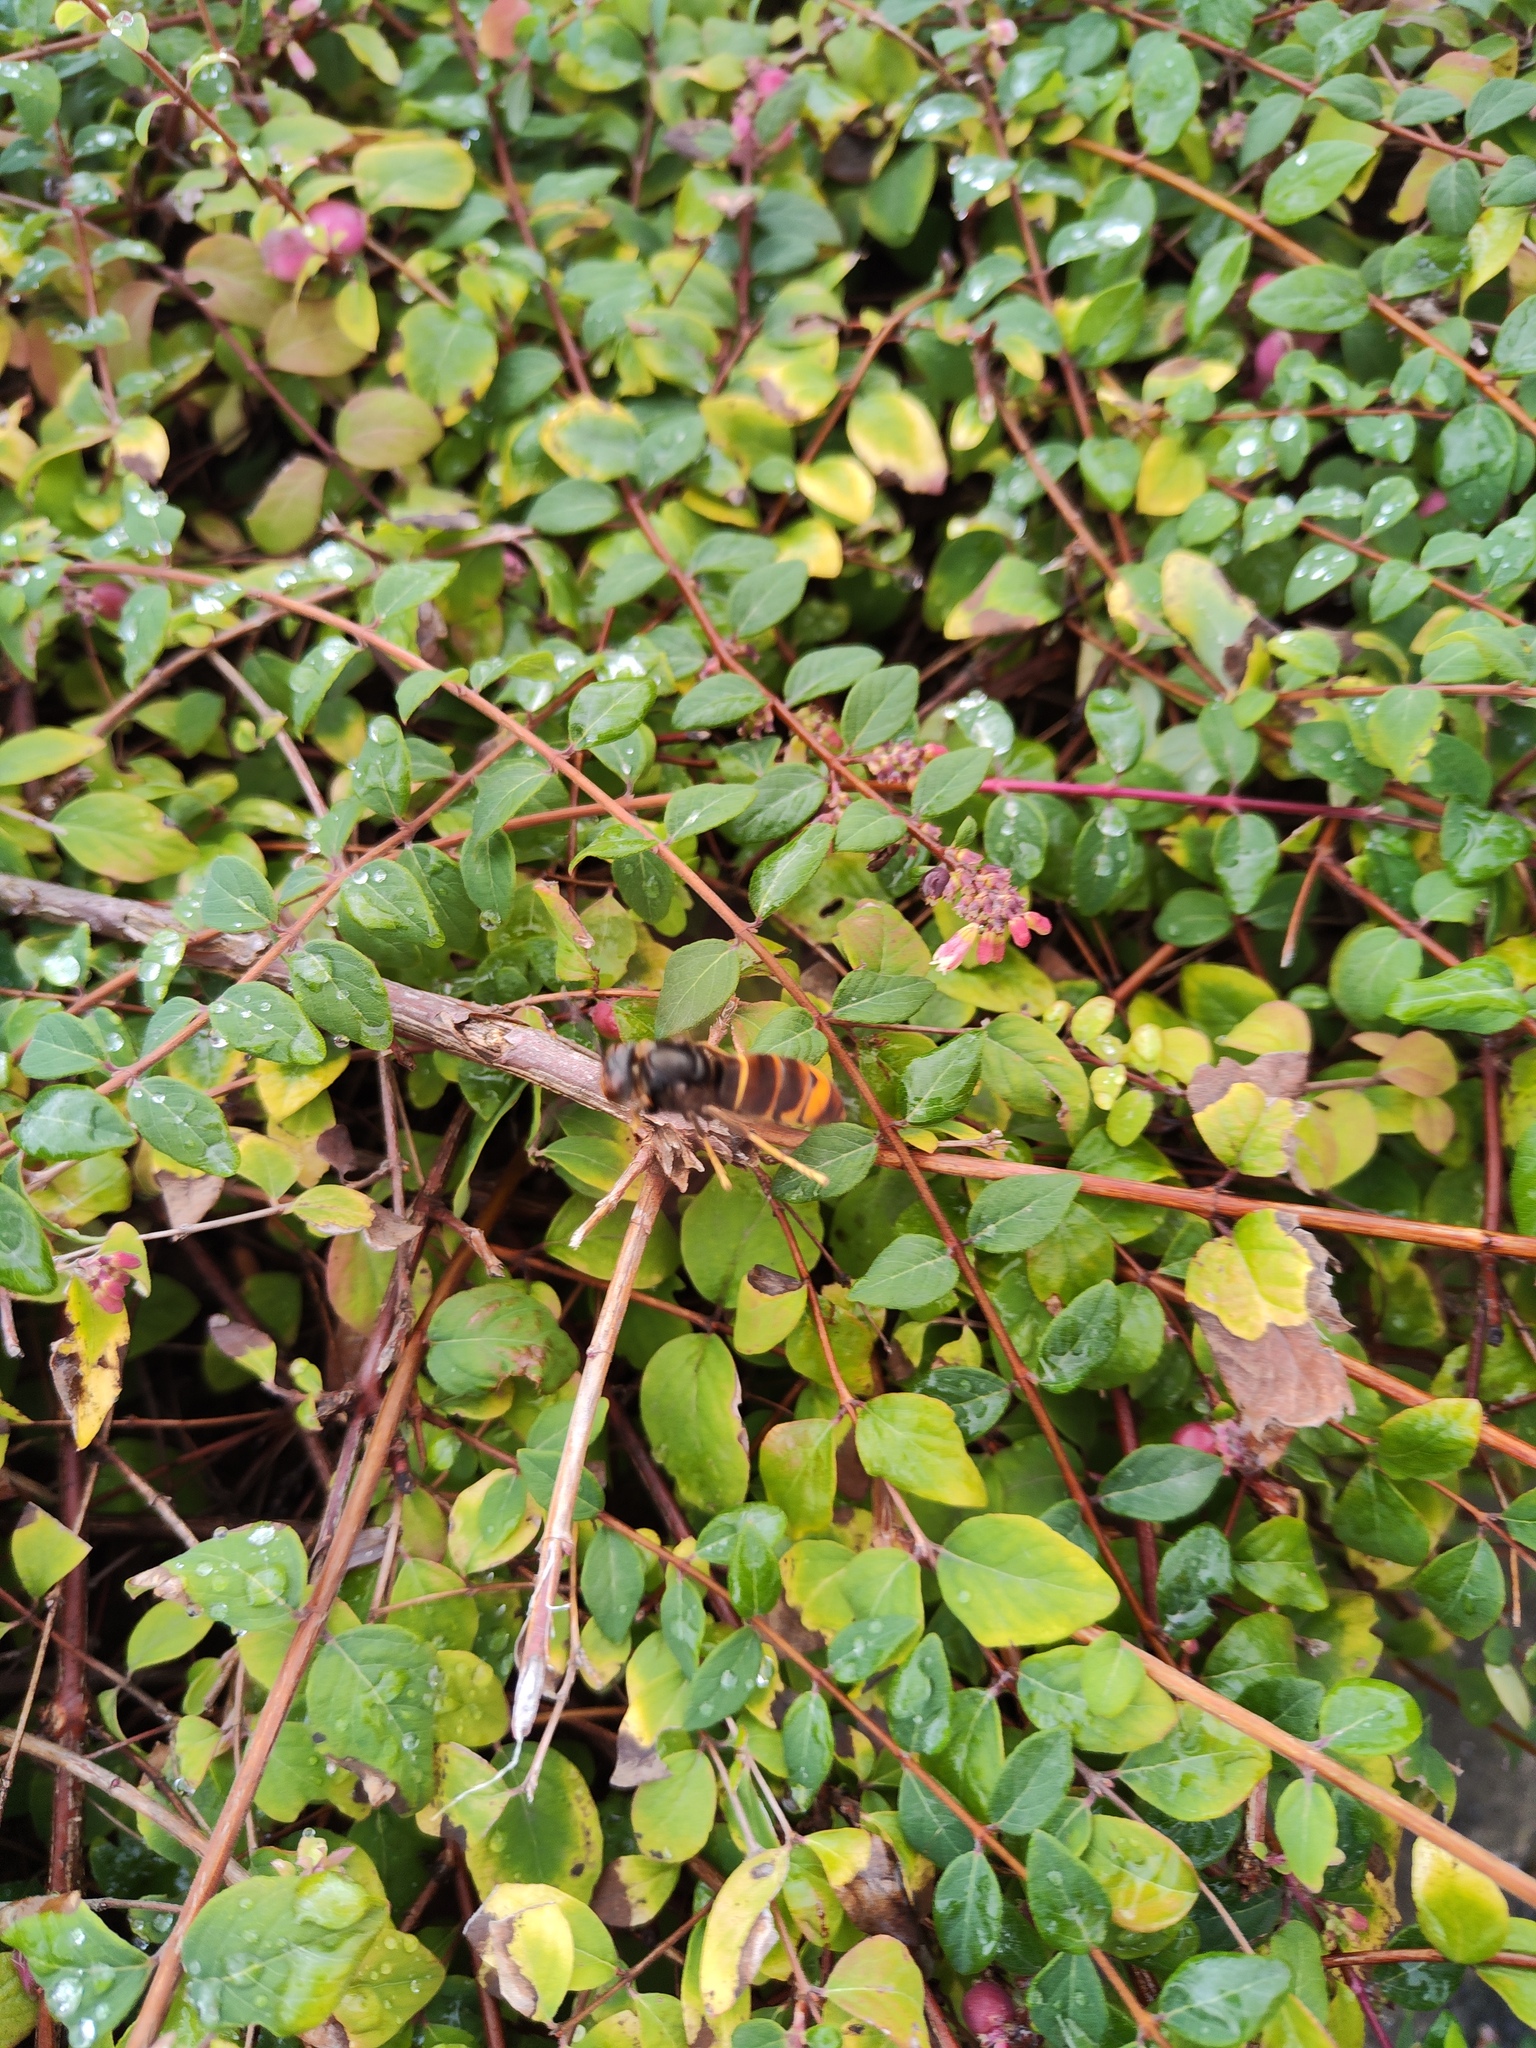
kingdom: Animalia
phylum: Arthropoda
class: Insecta
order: Hymenoptera
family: Vespidae
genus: Vespa
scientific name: Vespa velutina
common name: Asian hornet
